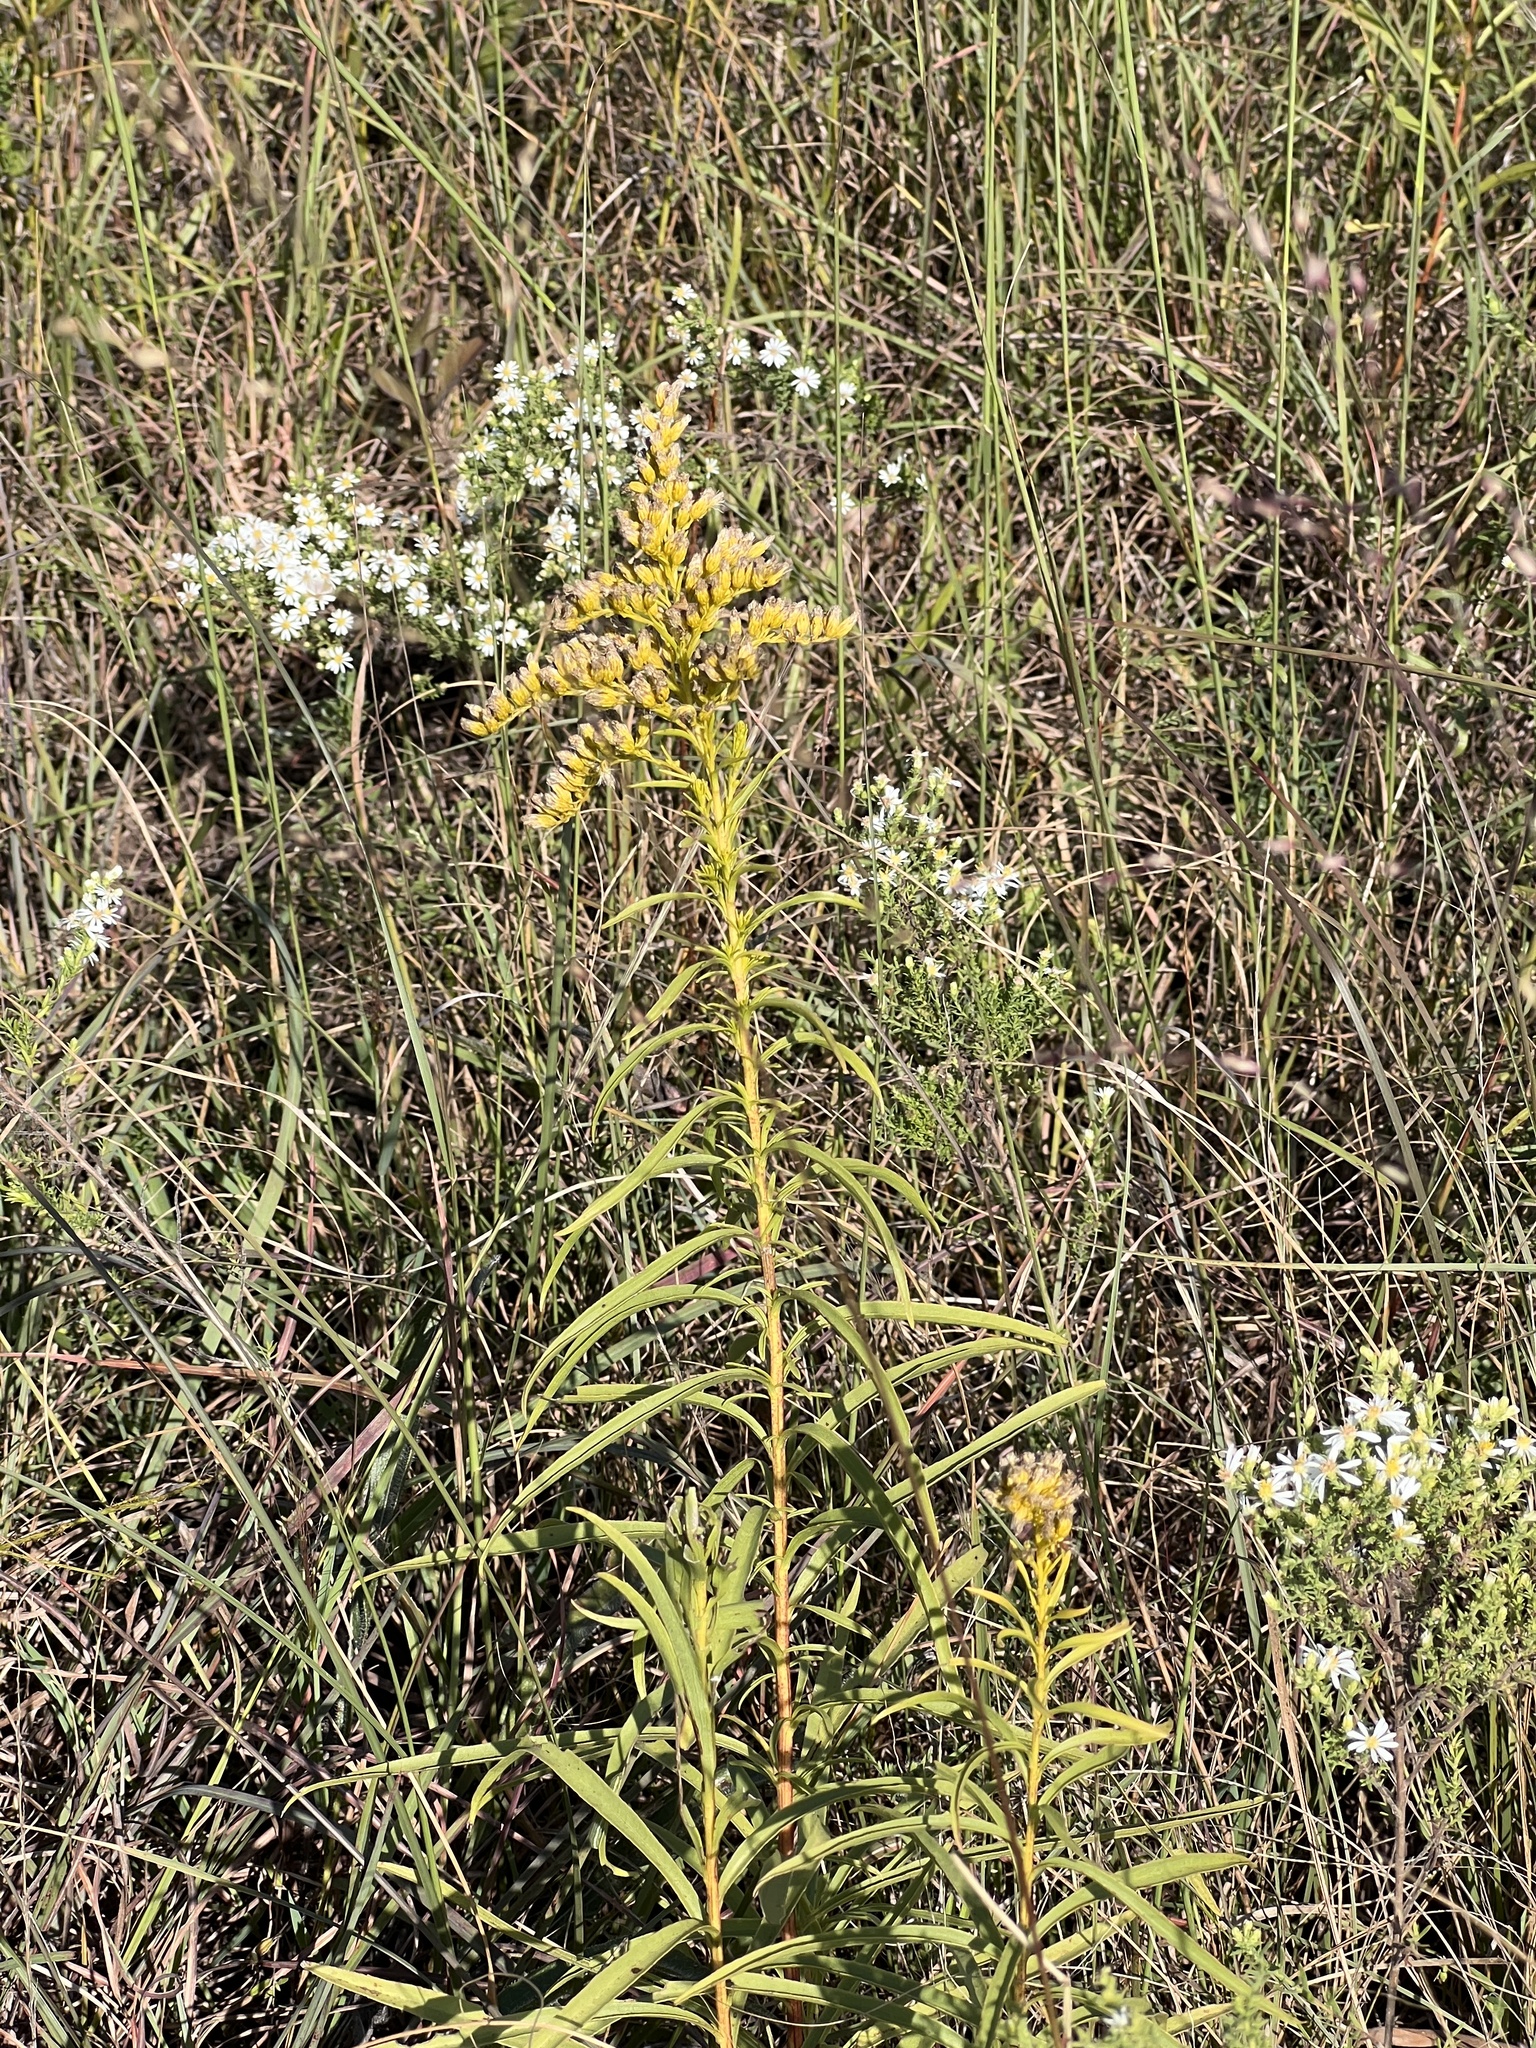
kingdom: Plantae
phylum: Tracheophyta
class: Magnoliopsida
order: Asterales
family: Asteraceae
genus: Solidago
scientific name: Solidago missouriensis
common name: Prairie goldenrod
